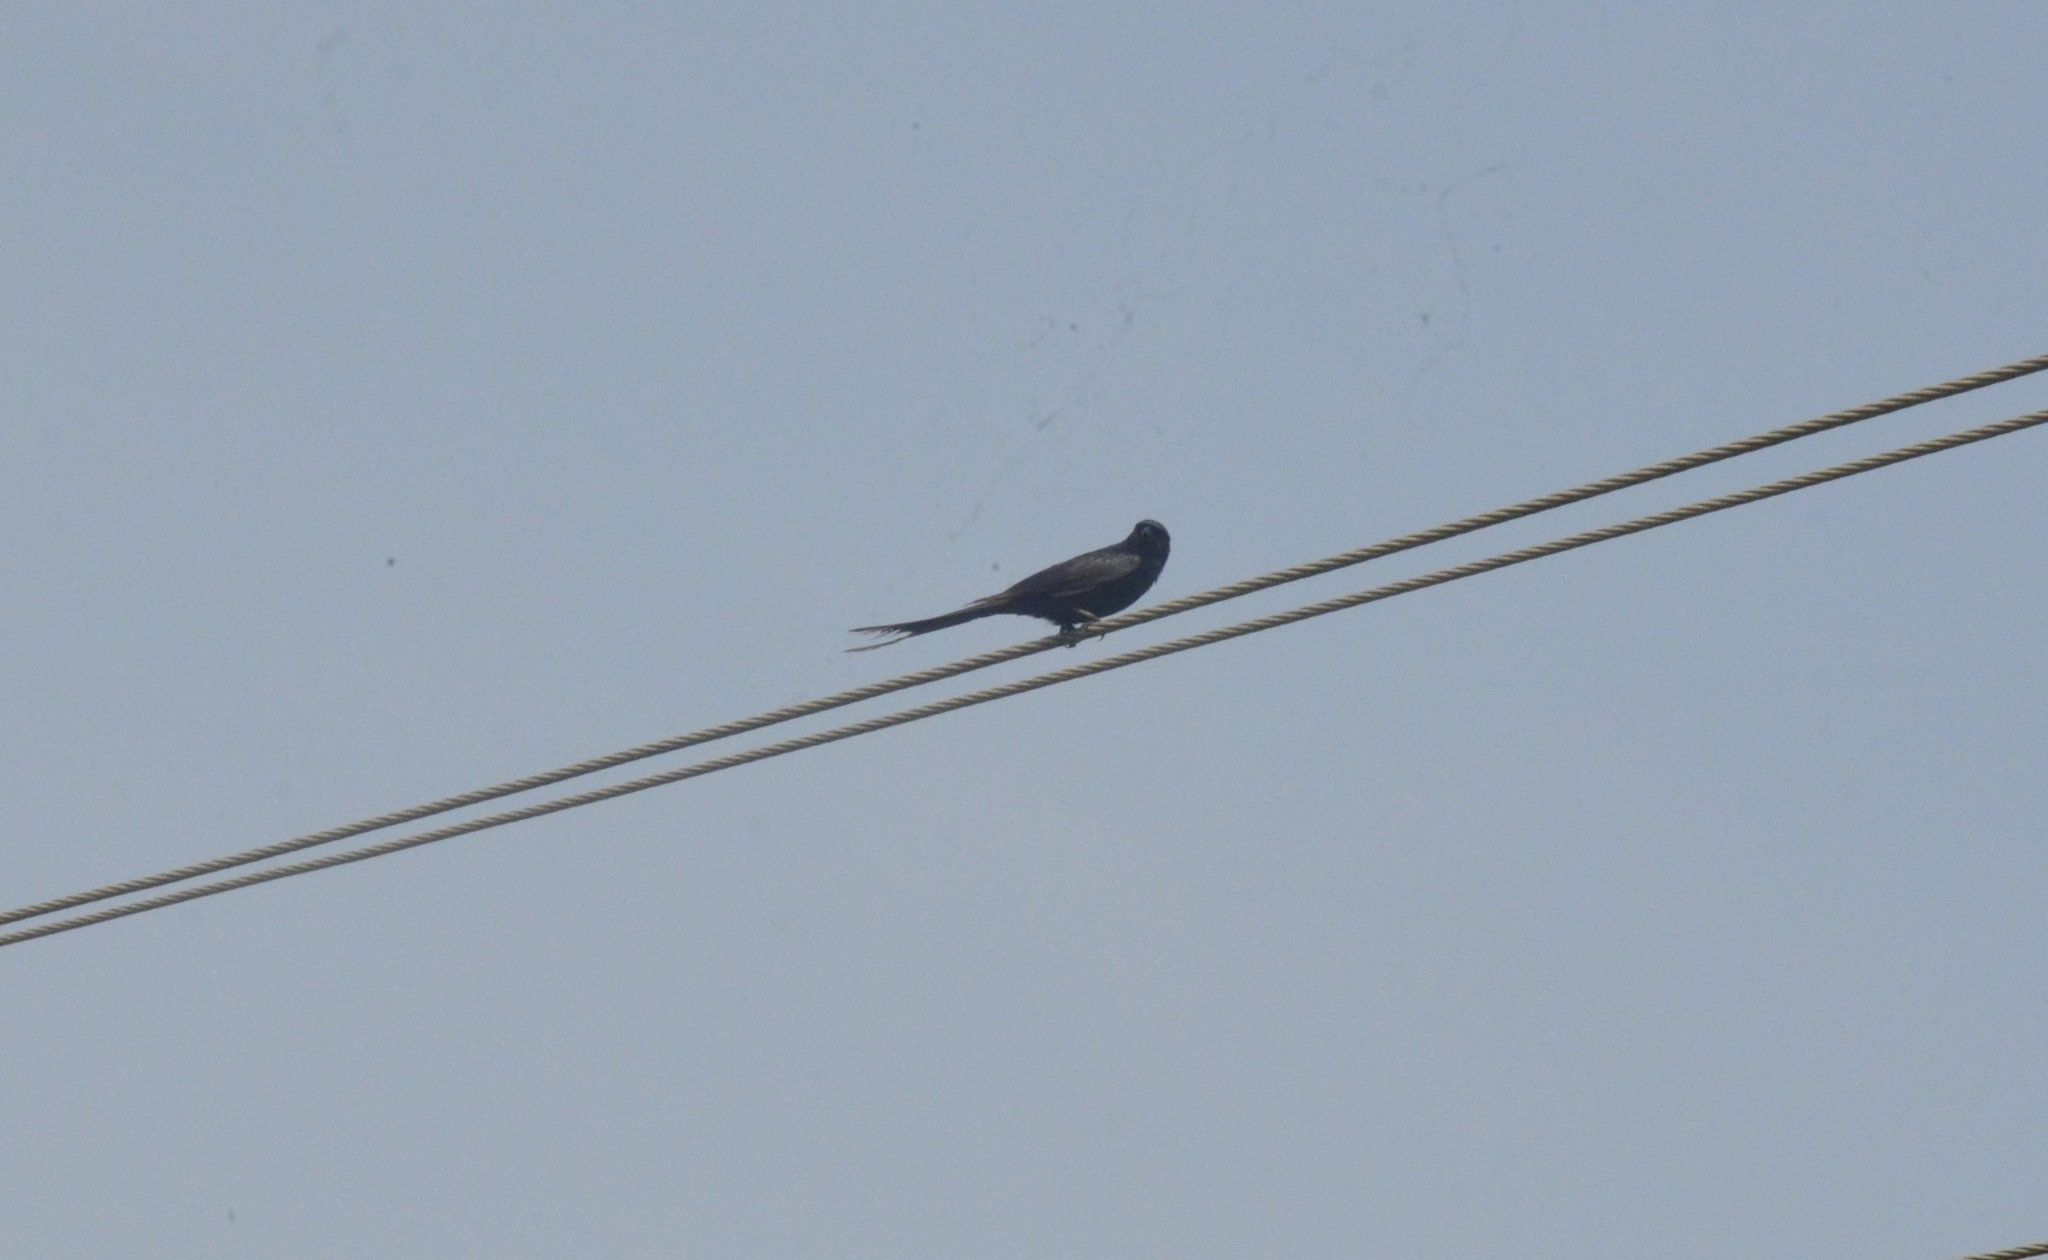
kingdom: Animalia
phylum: Chordata
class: Aves
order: Passeriformes
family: Dicruridae
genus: Dicrurus
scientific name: Dicrurus macrocercus
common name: Black drongo
